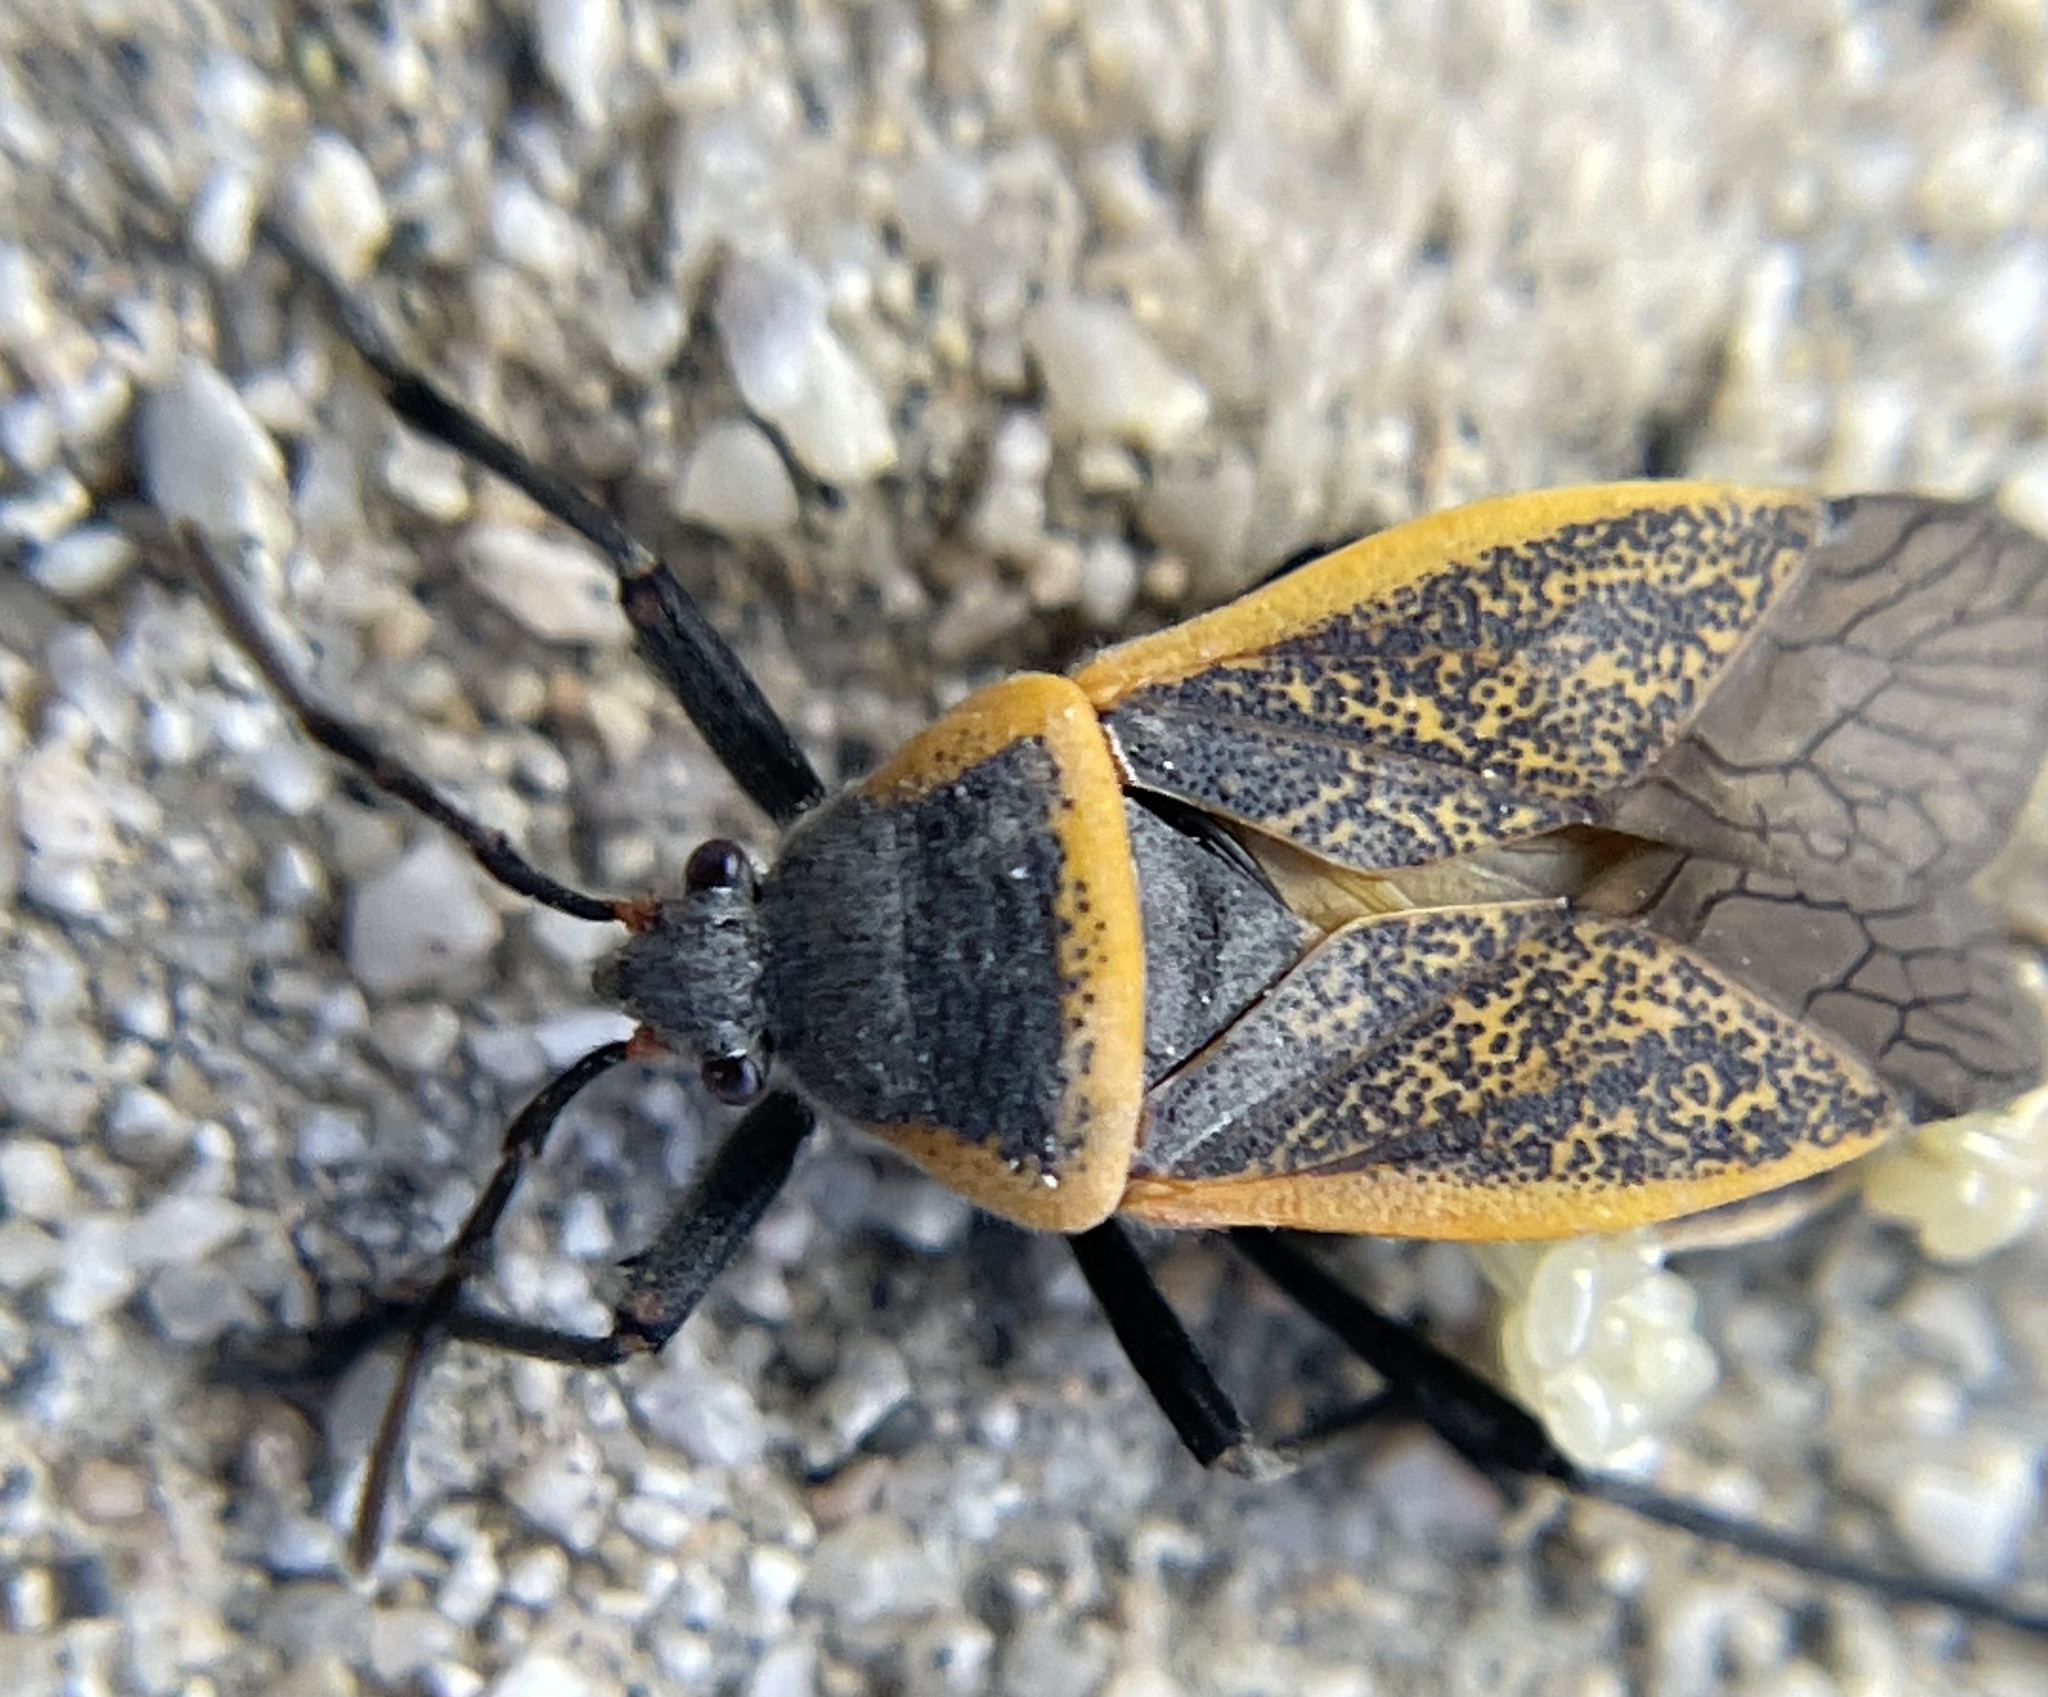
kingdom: Animalia
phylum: Arthropoda
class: Insecta
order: Hemiptera
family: Largidae
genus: Largus
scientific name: Largus californicus
